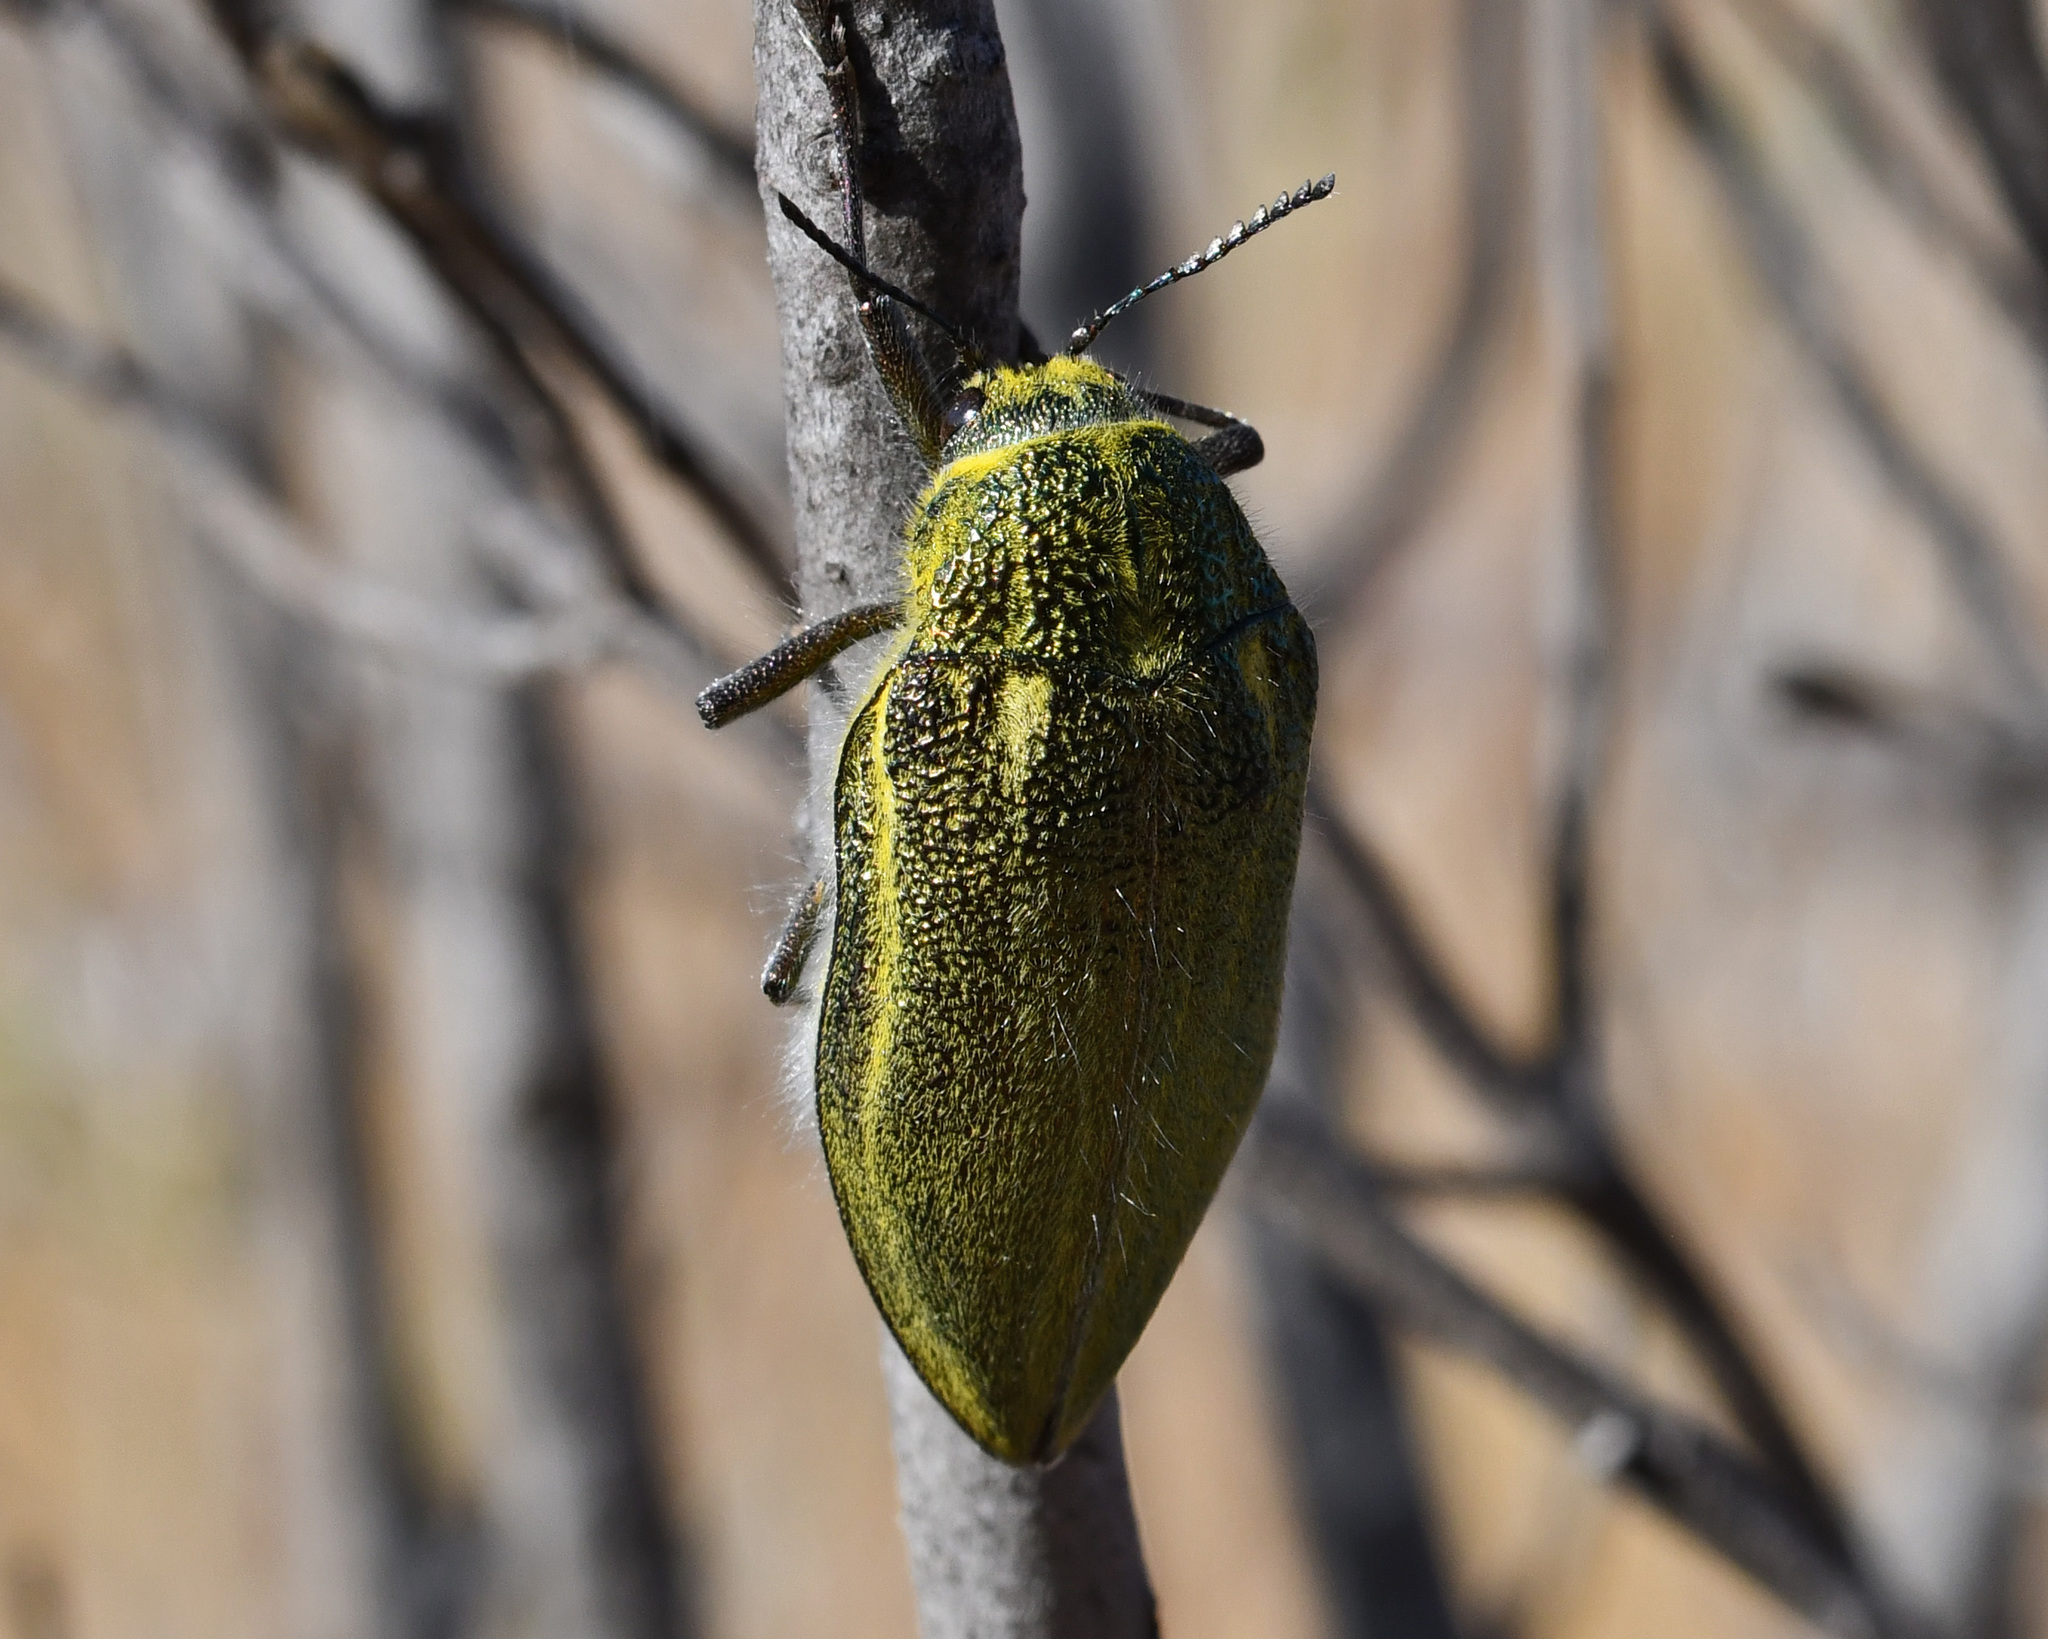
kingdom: Animalia
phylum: Arthropoda
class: Insecta
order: Coleoptera
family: Buprestidae
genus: Julodis
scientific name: Julodis armeniaca
